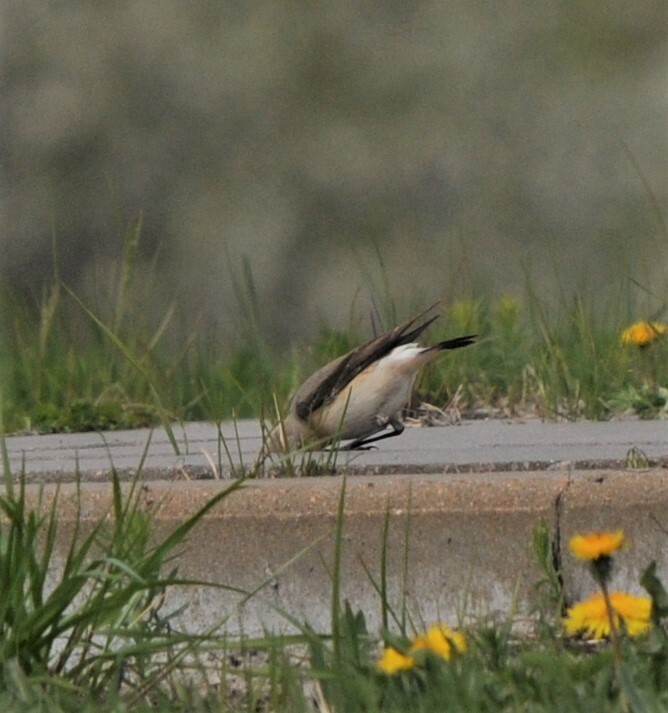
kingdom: Animalia
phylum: Chordata
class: Aves
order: Passeriformes
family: Muscicapidae
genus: Oenanthe
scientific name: Oenanthe oenanthe
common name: Northern wheatear
